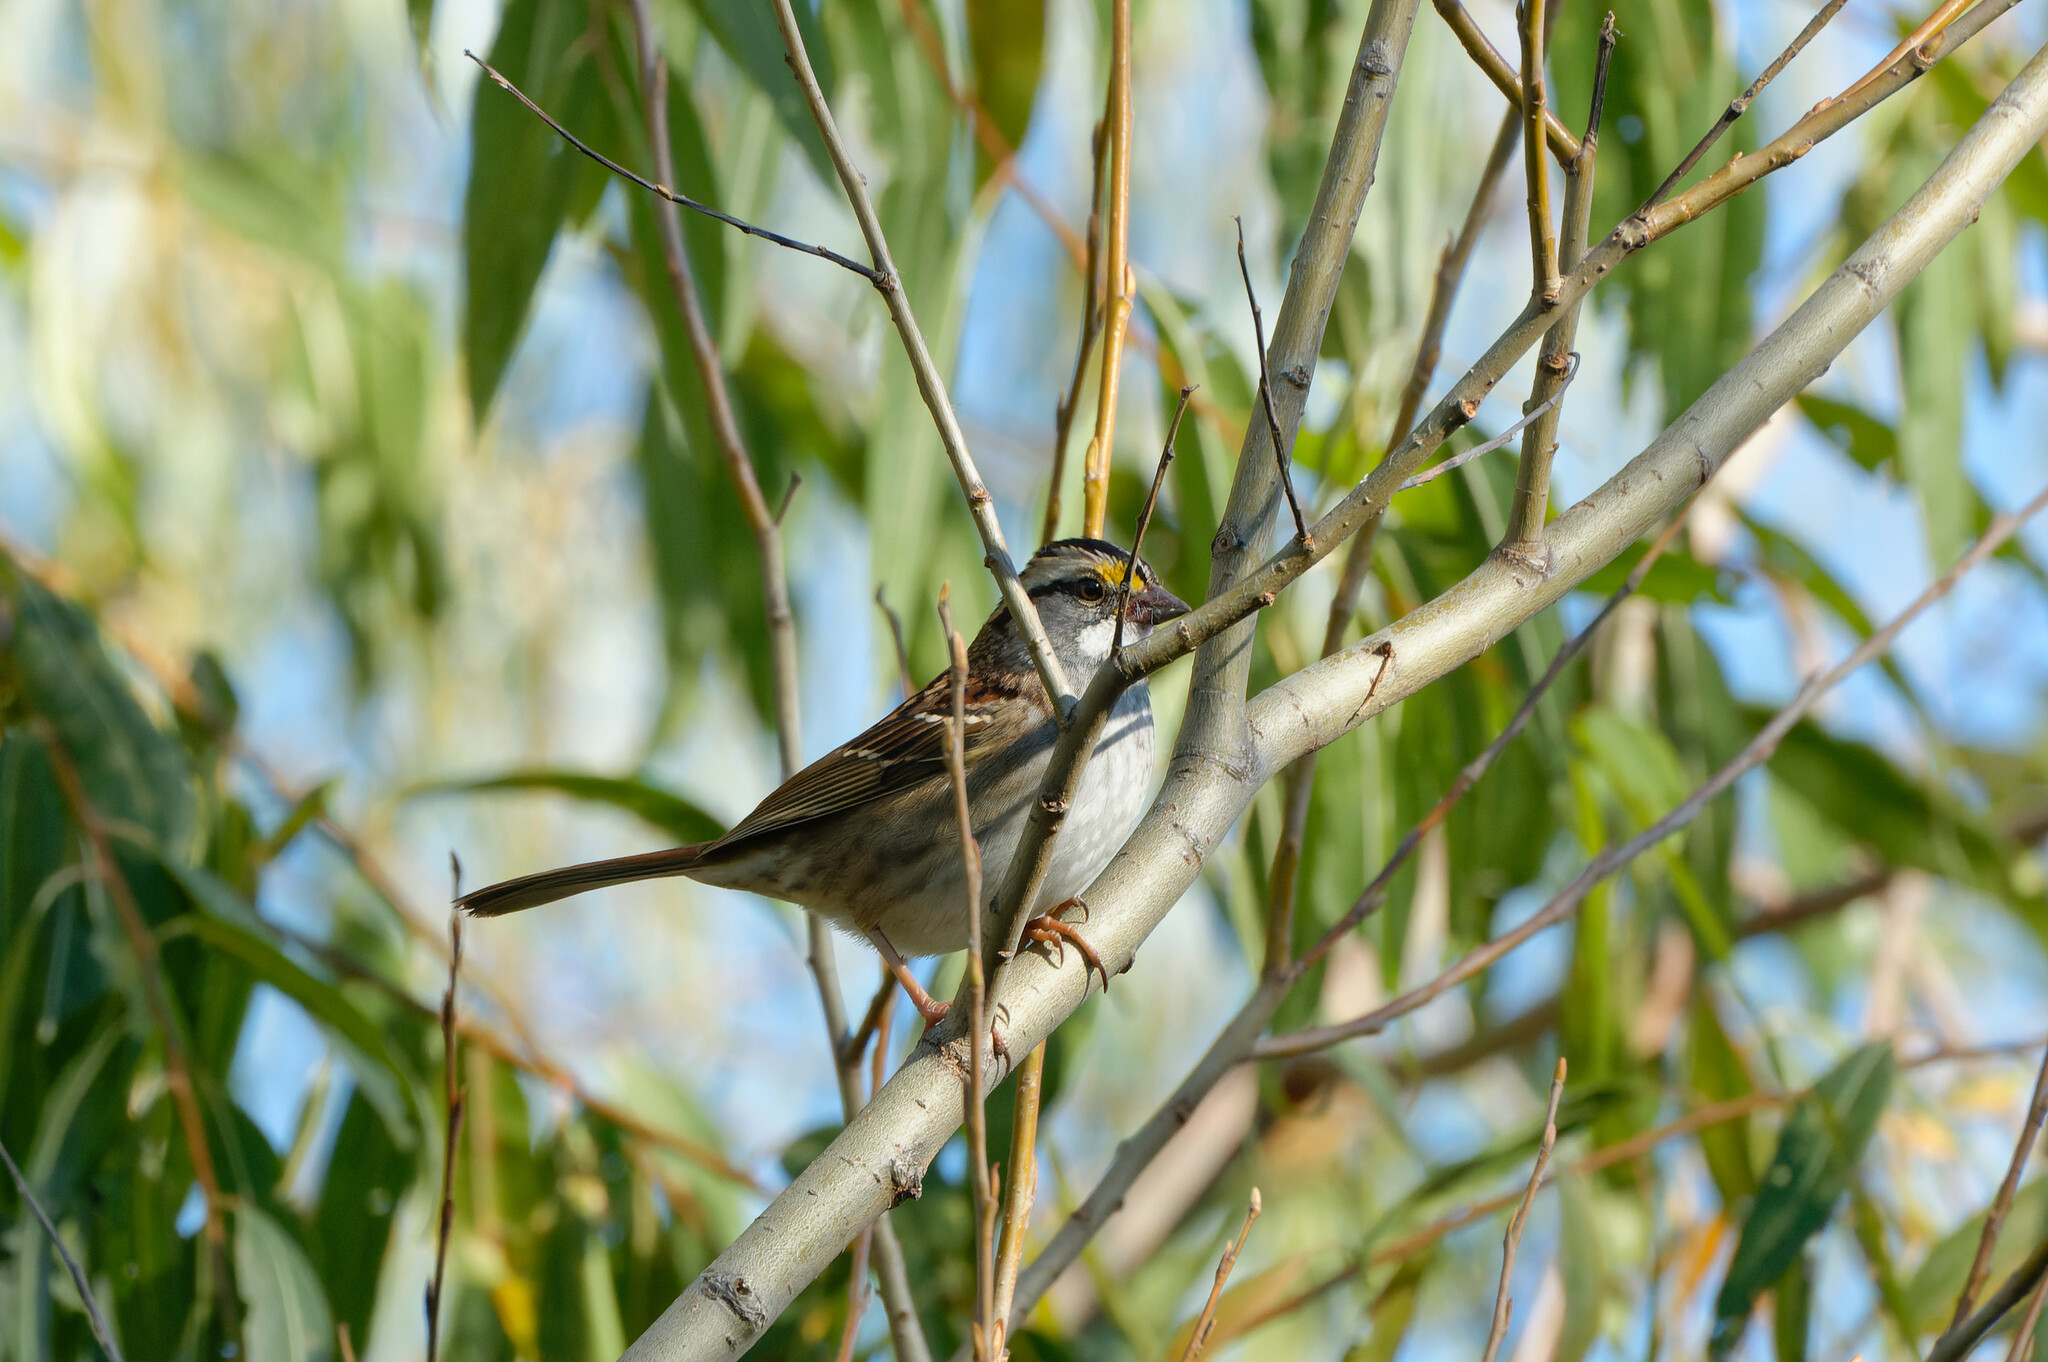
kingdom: Animalia
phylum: Chordata
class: Aves
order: Passeriformes
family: Passerellidae
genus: Zonotrichia
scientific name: Zonotrichia albicollis
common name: White-throated sparrow
